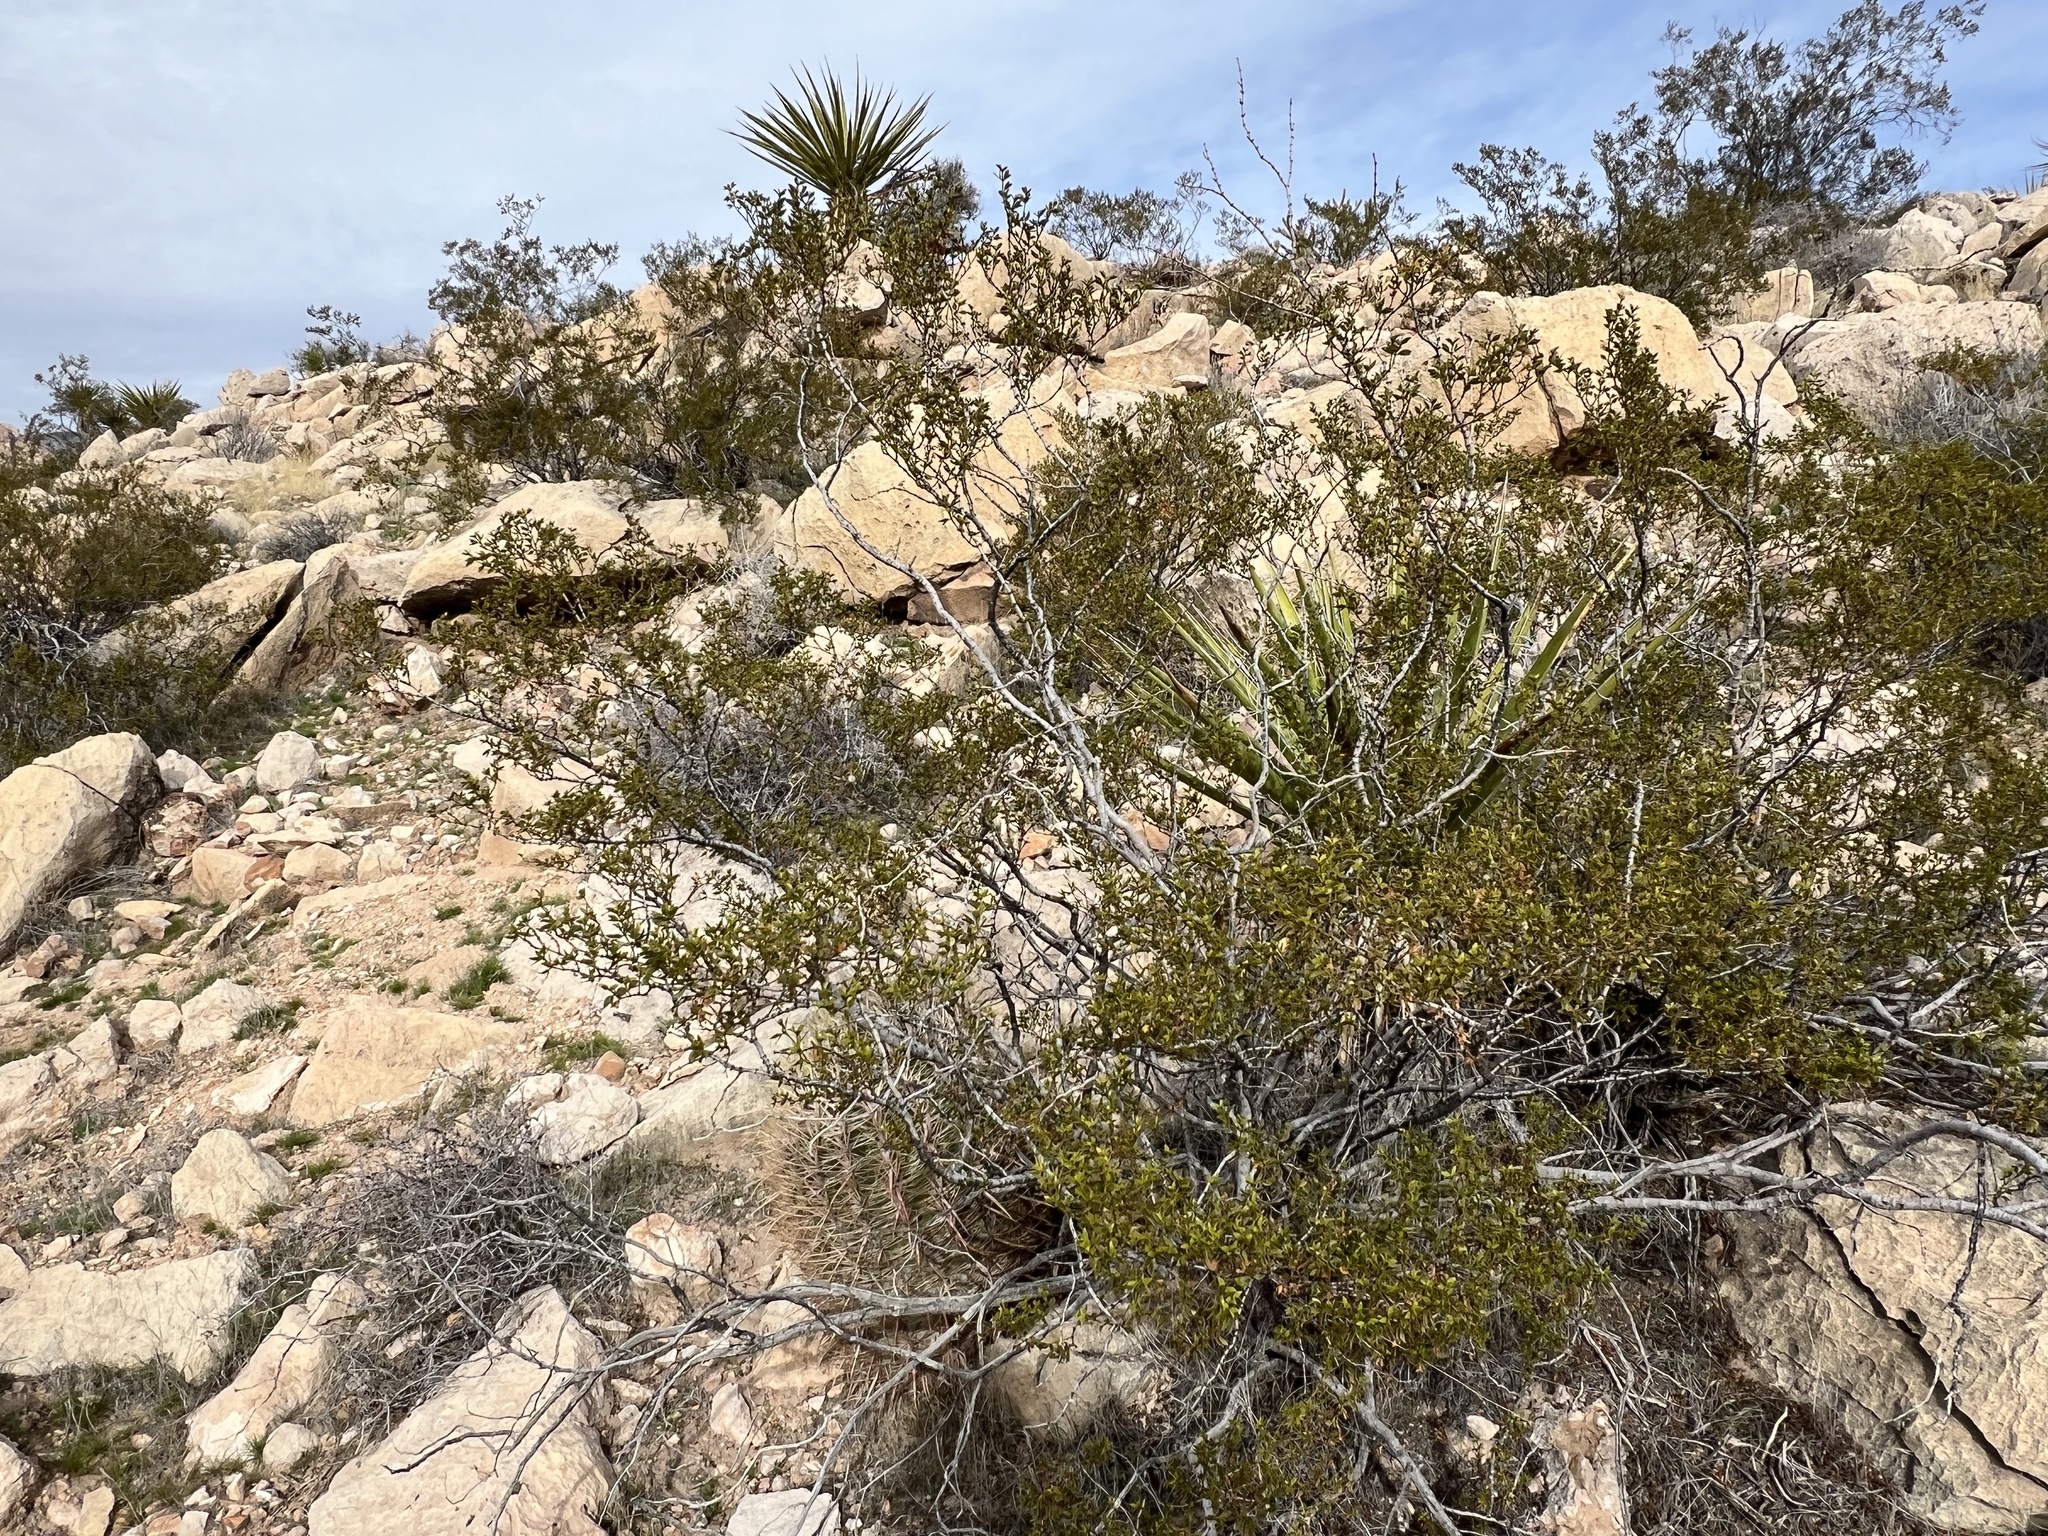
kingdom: Plantae
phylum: Tracheophyta
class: Magnoliopsida
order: Zygophyllales
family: Zygophyllaceae
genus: Larrea
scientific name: Larrea tridentata
